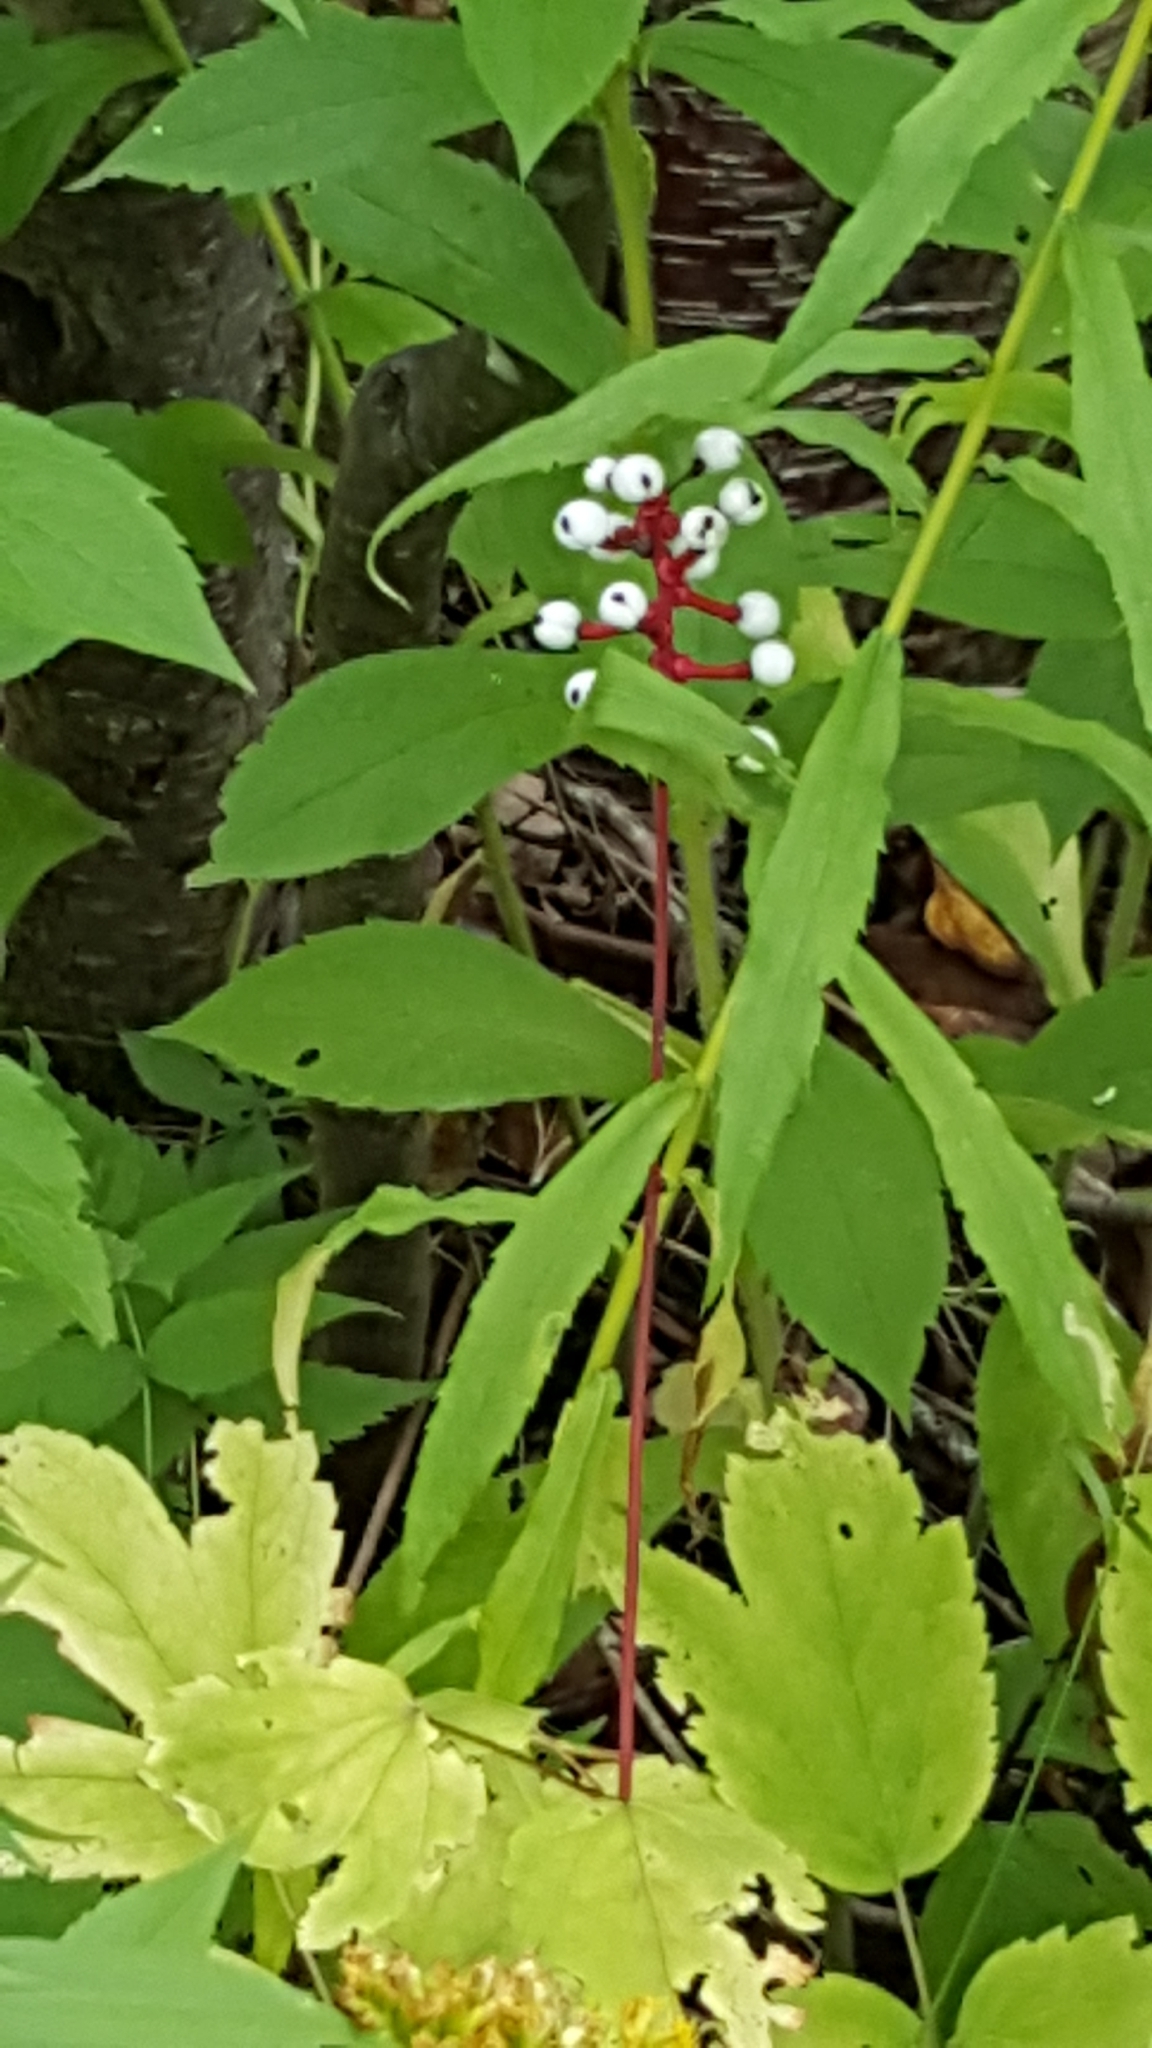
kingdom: Plantae
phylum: Tracheophyta
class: Magnoliopsida
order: Ranunculales
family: Ranunculaceae
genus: Actaea
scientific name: Actaea pachypoda
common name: Doll's-eyes
